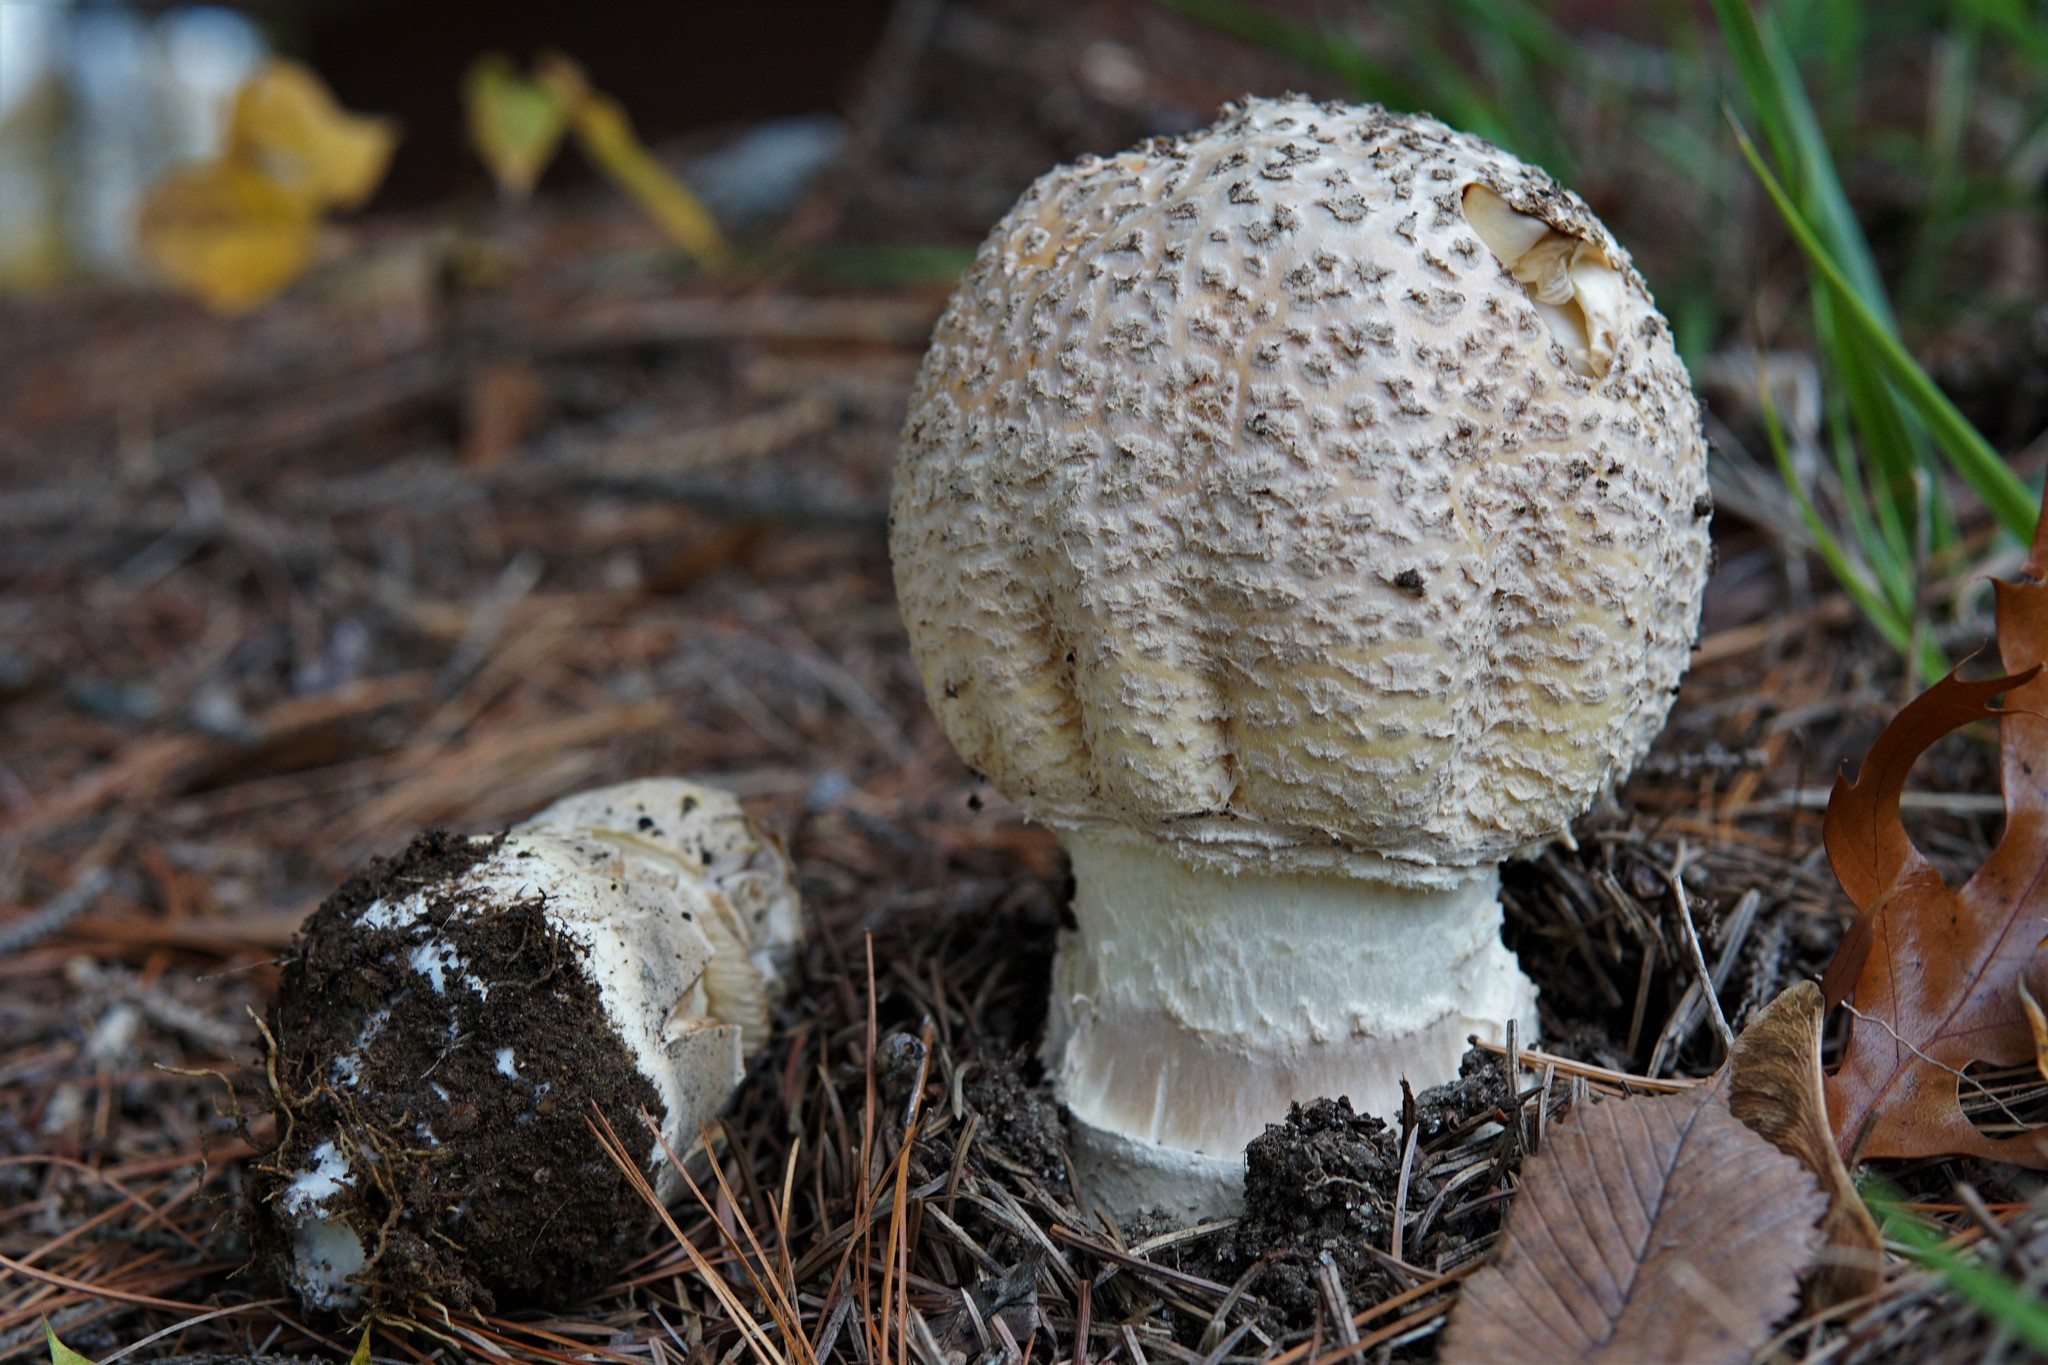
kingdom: Fungi
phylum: Basidiomycota
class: Agaricomycetes
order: Agaricales
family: Amanitaceae
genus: Amanita
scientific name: Amanita muscaria
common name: Fly agaric
